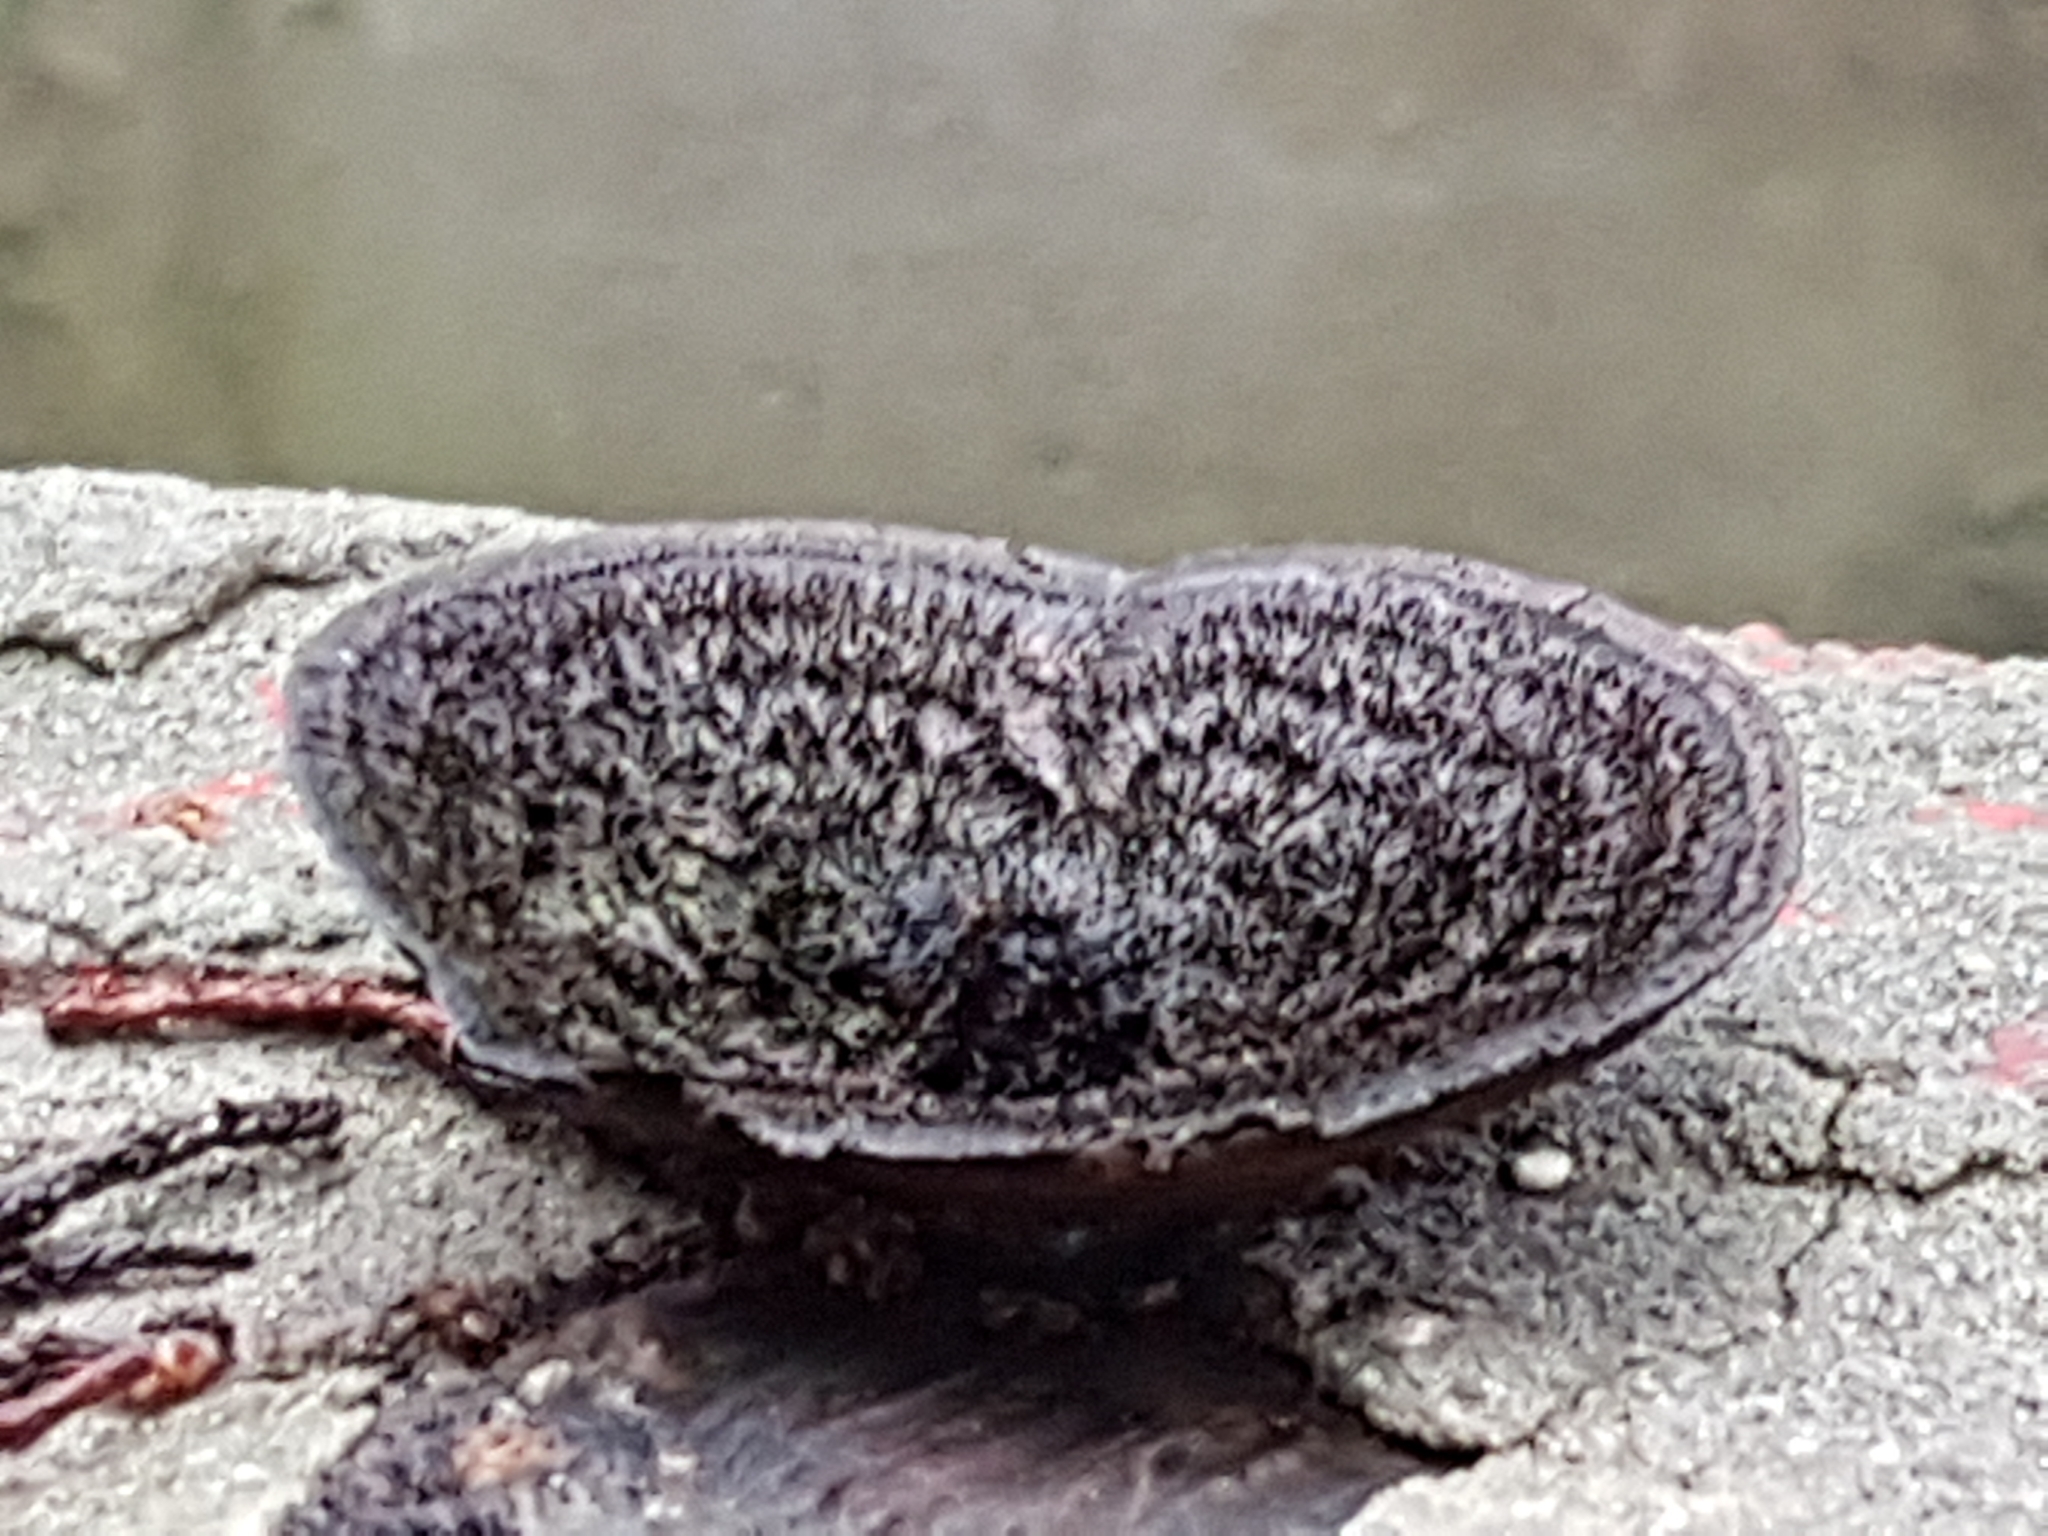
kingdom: Fungi
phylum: Basidiomycota
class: Agaricomycetes
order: Polyporales
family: Cerrenaceae
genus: Cerrena
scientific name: Cerrena hydnoides
